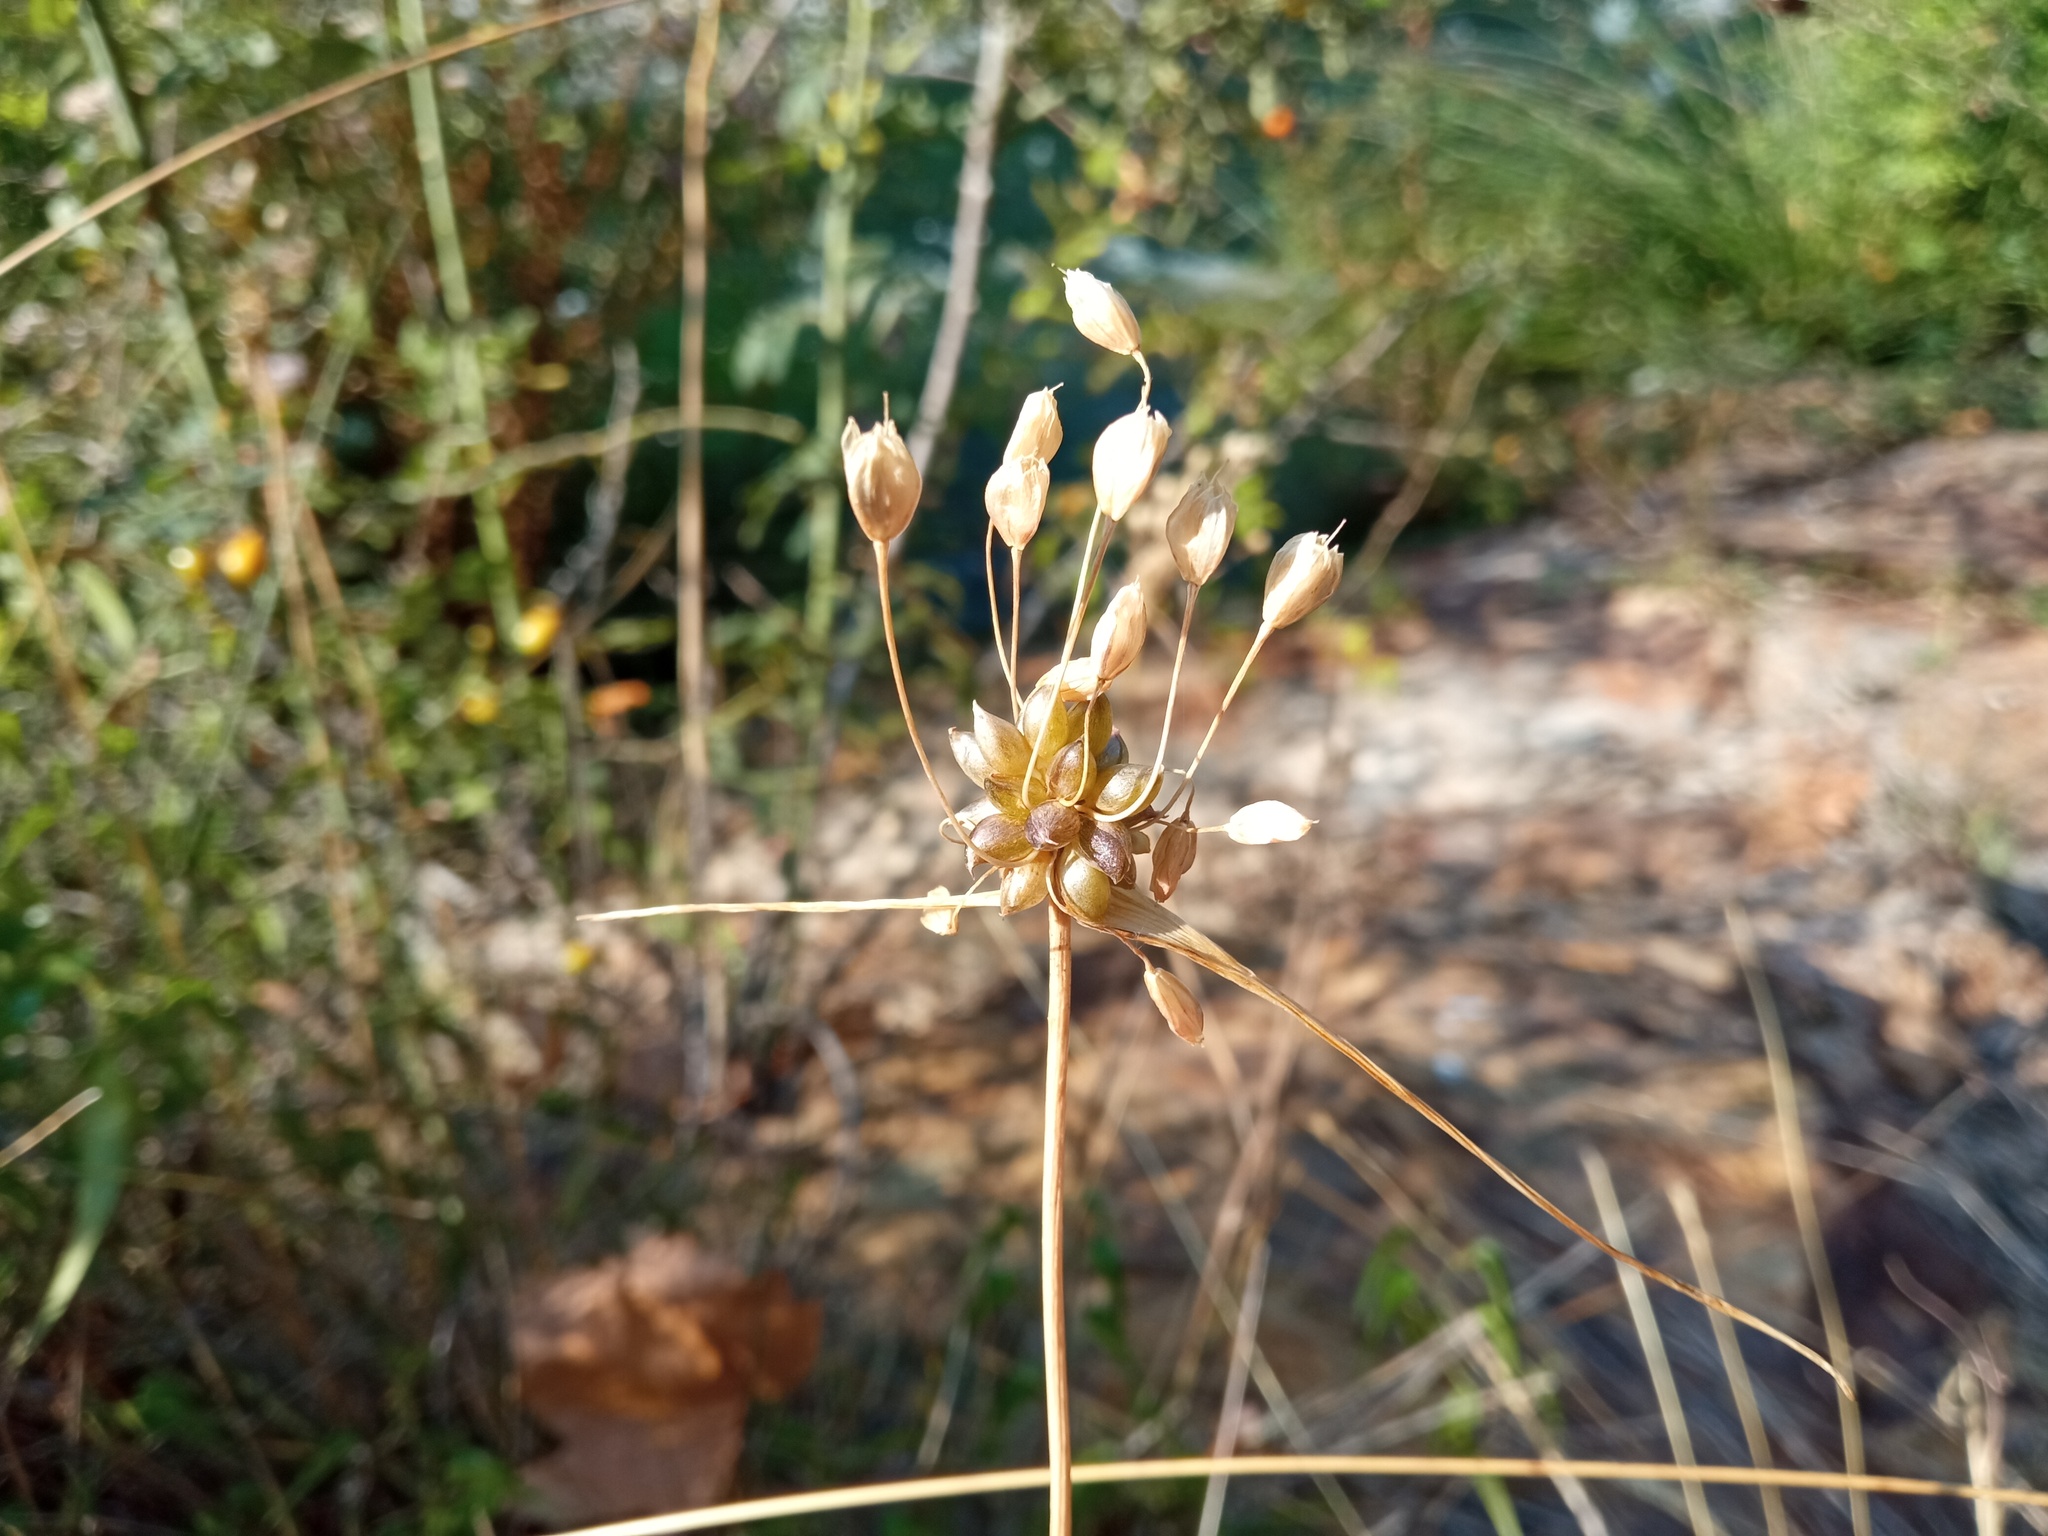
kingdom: Plantae
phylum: Tracheophyta
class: Liliopsida
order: Asparagales
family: Amaryllidaceae
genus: Allium
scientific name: Allium oleraceum
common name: Field garlic
